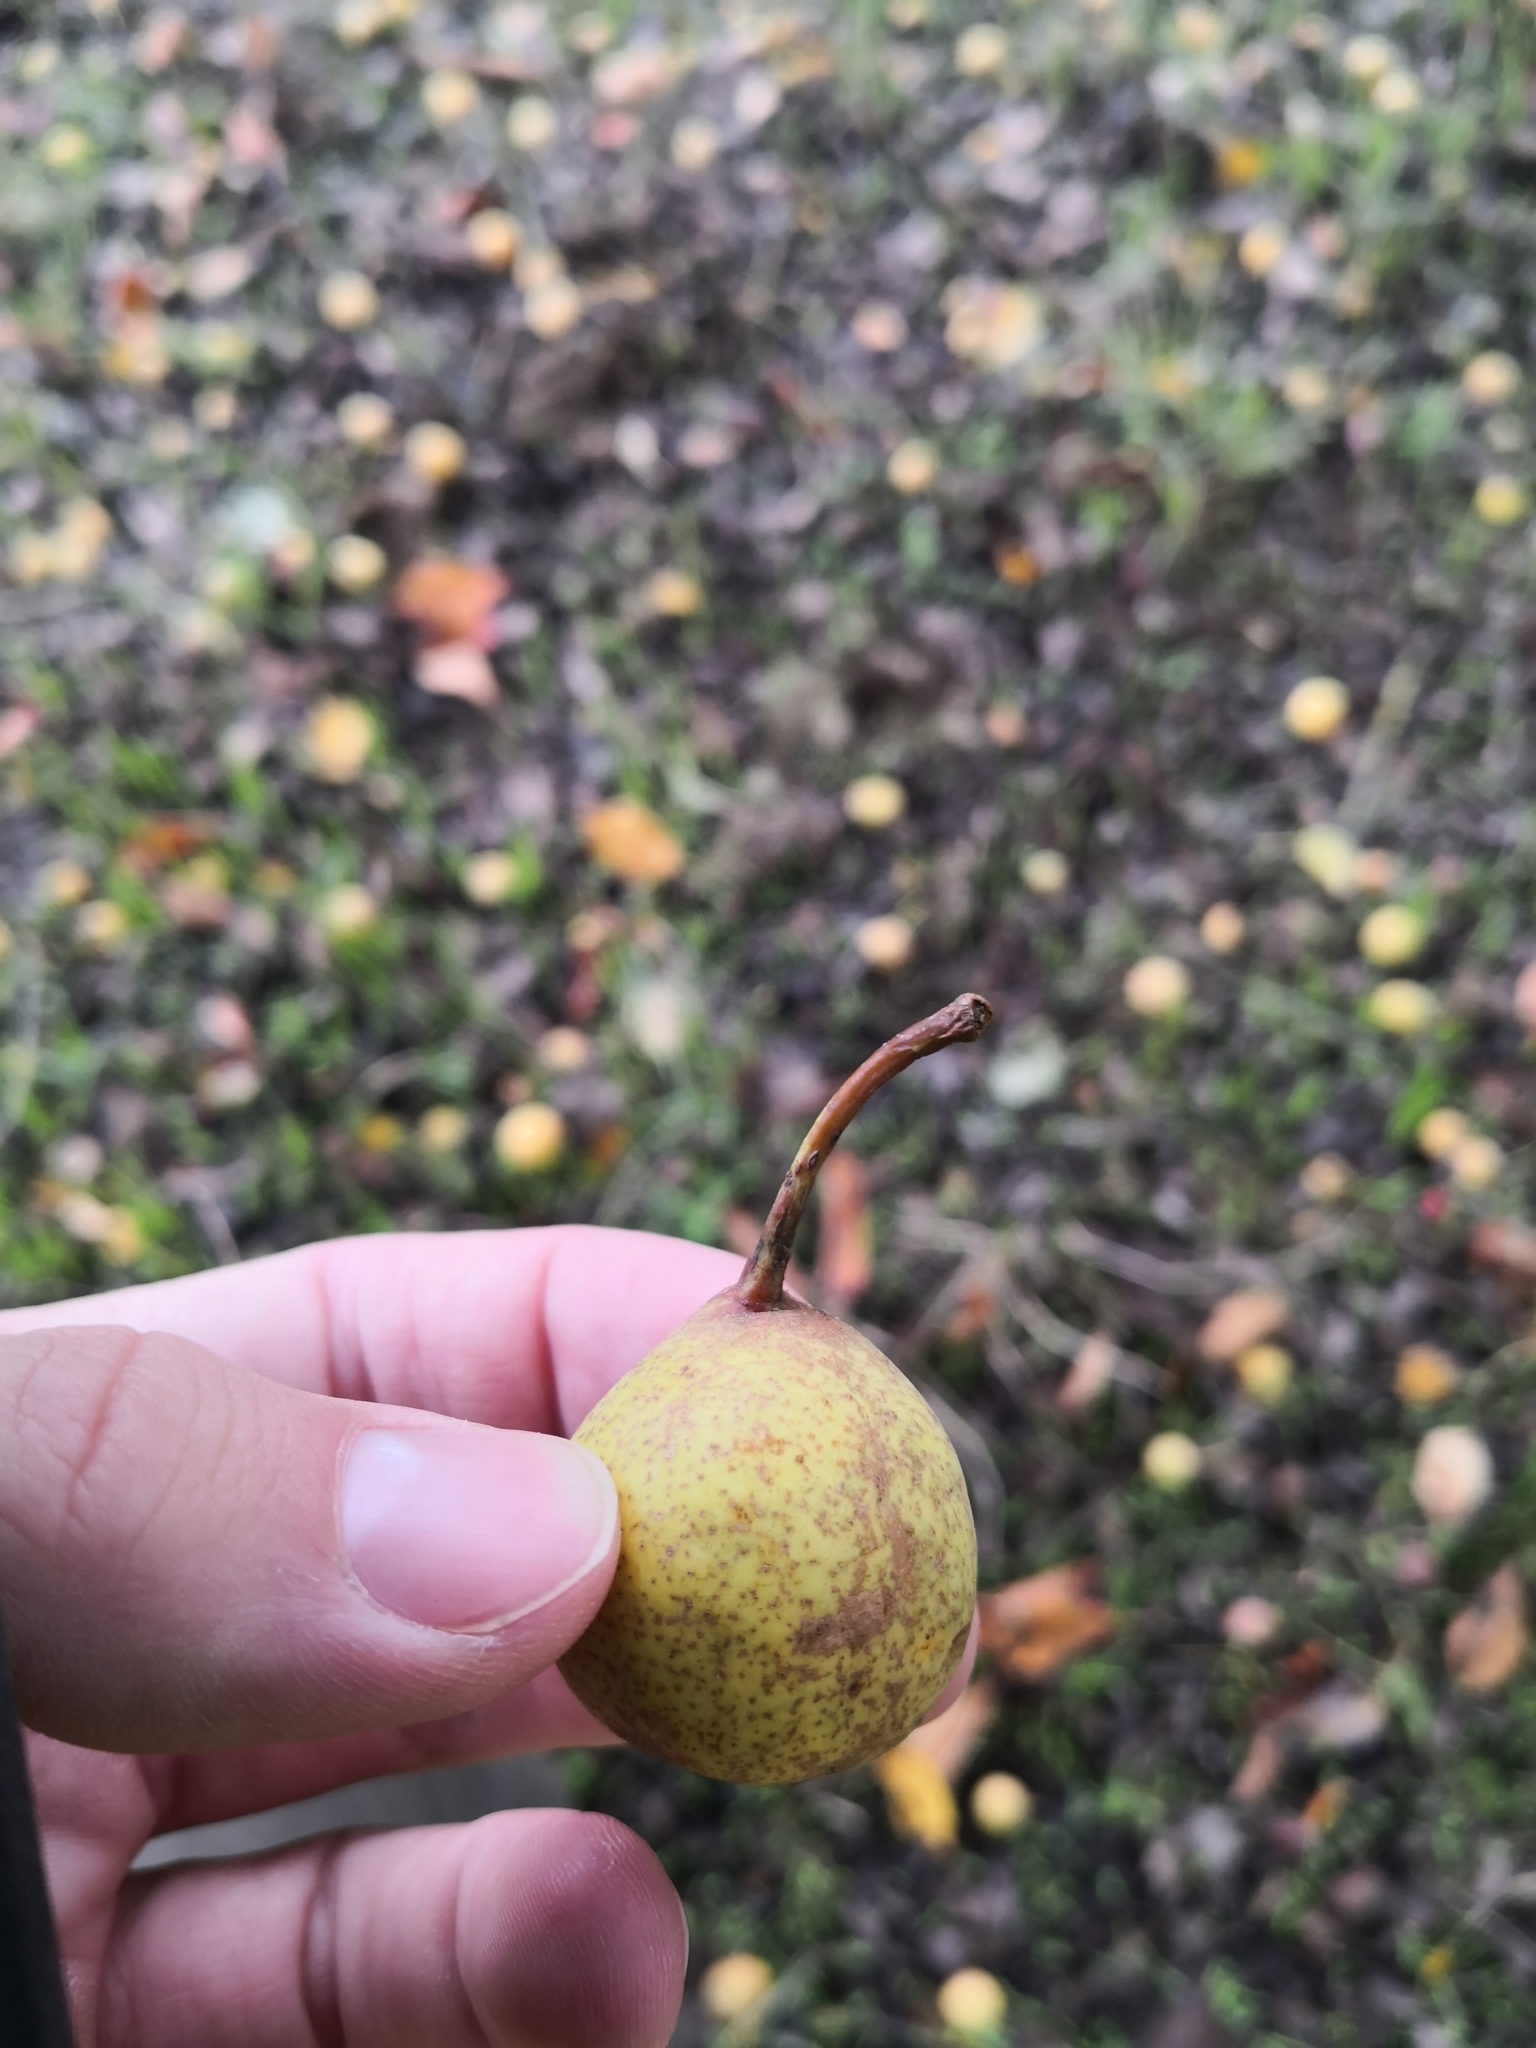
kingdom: Plantae
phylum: Tracheophyta
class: Magnoliopsida
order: Rosales
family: Rosaceae
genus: Pyrus
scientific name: Pyrus communis
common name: Pear
